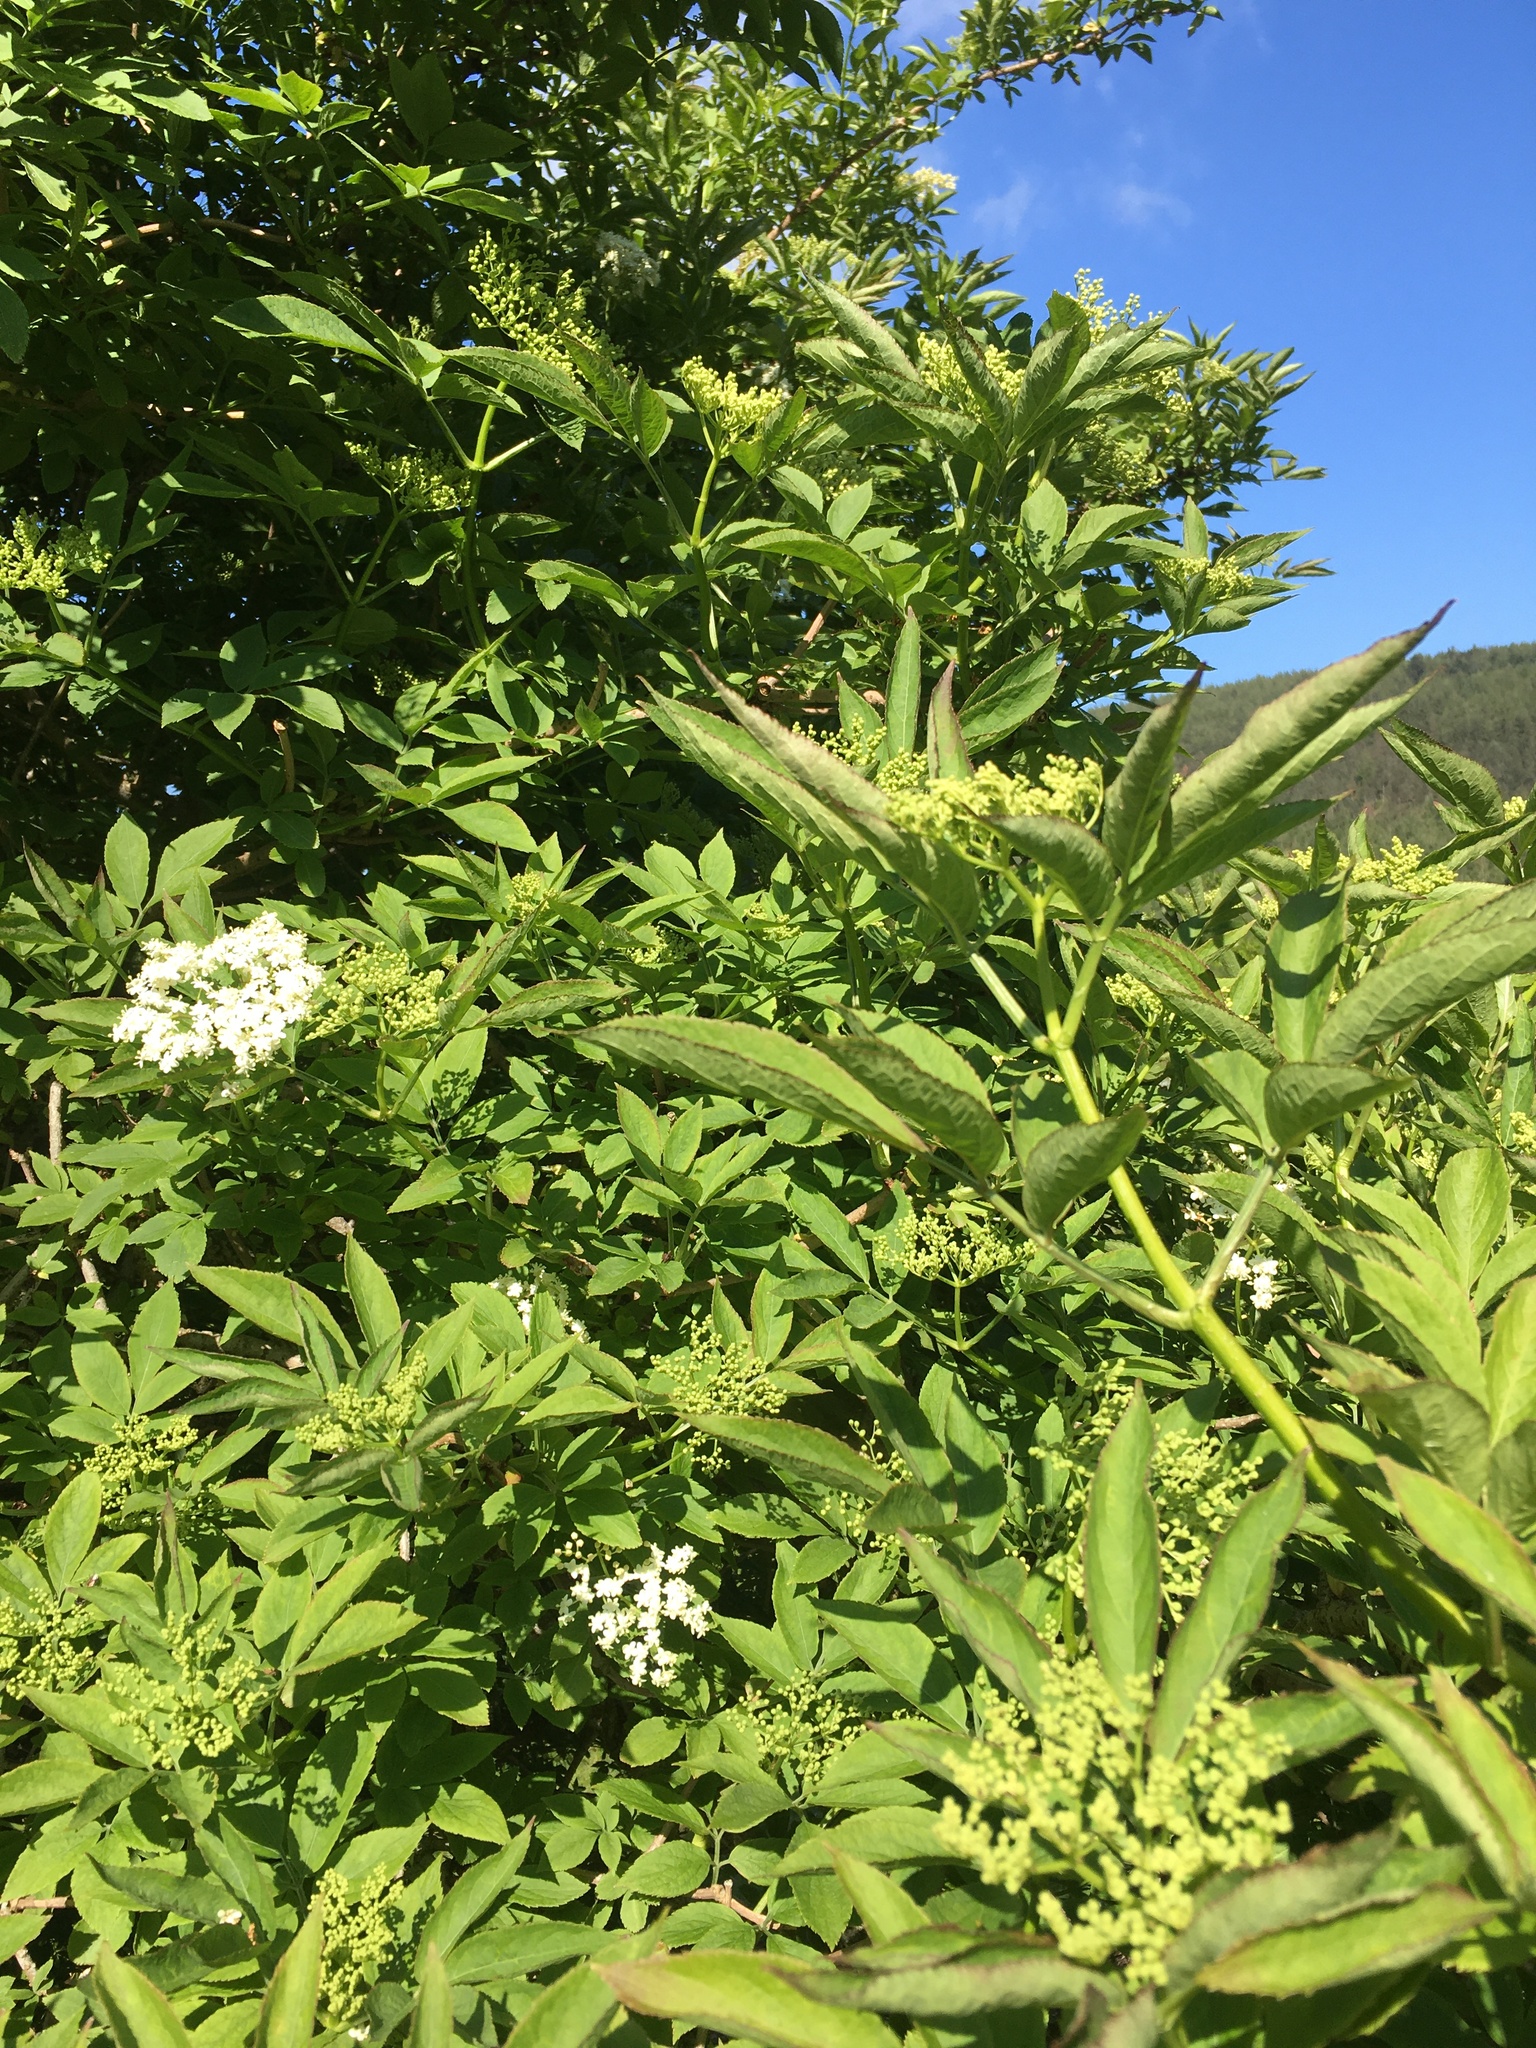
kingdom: Plantae
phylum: Tracheophyta
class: Magnoliopsida
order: Dipsacales
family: Viburnaceae
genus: Sambucus
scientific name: Sambucus nigra
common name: Elder
